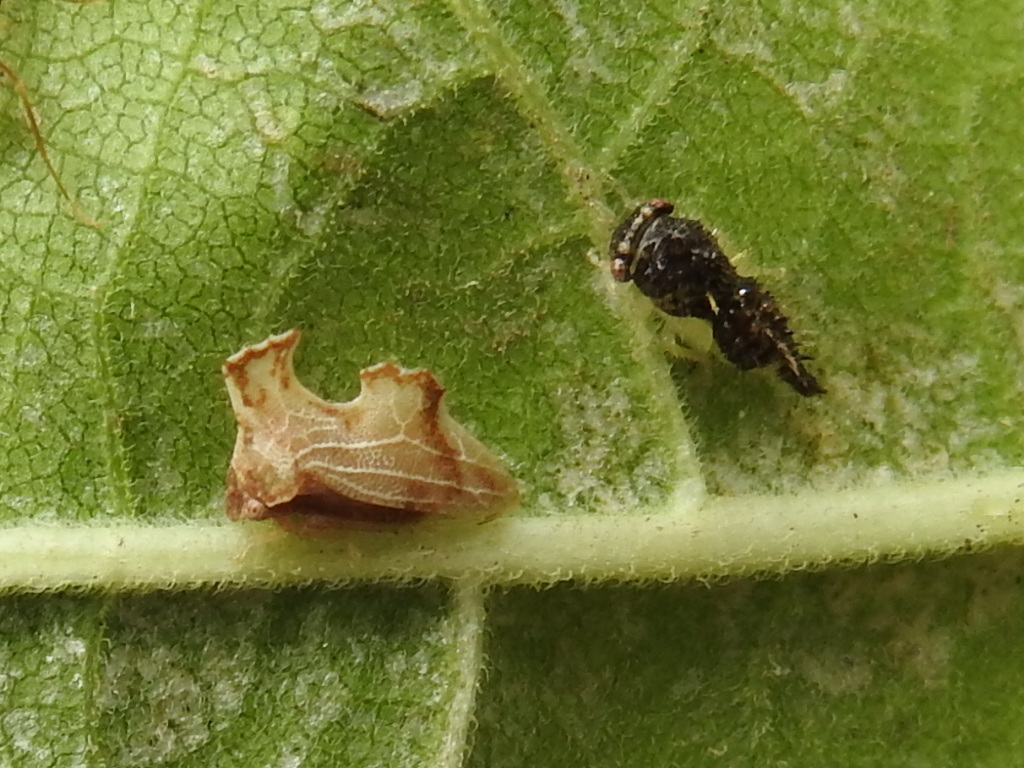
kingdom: Animalia
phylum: Arthropoda
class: Insecta
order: Hemiptera
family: Membracidae
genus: Entylia
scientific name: Entylia carinata
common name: Keeled treehopper
